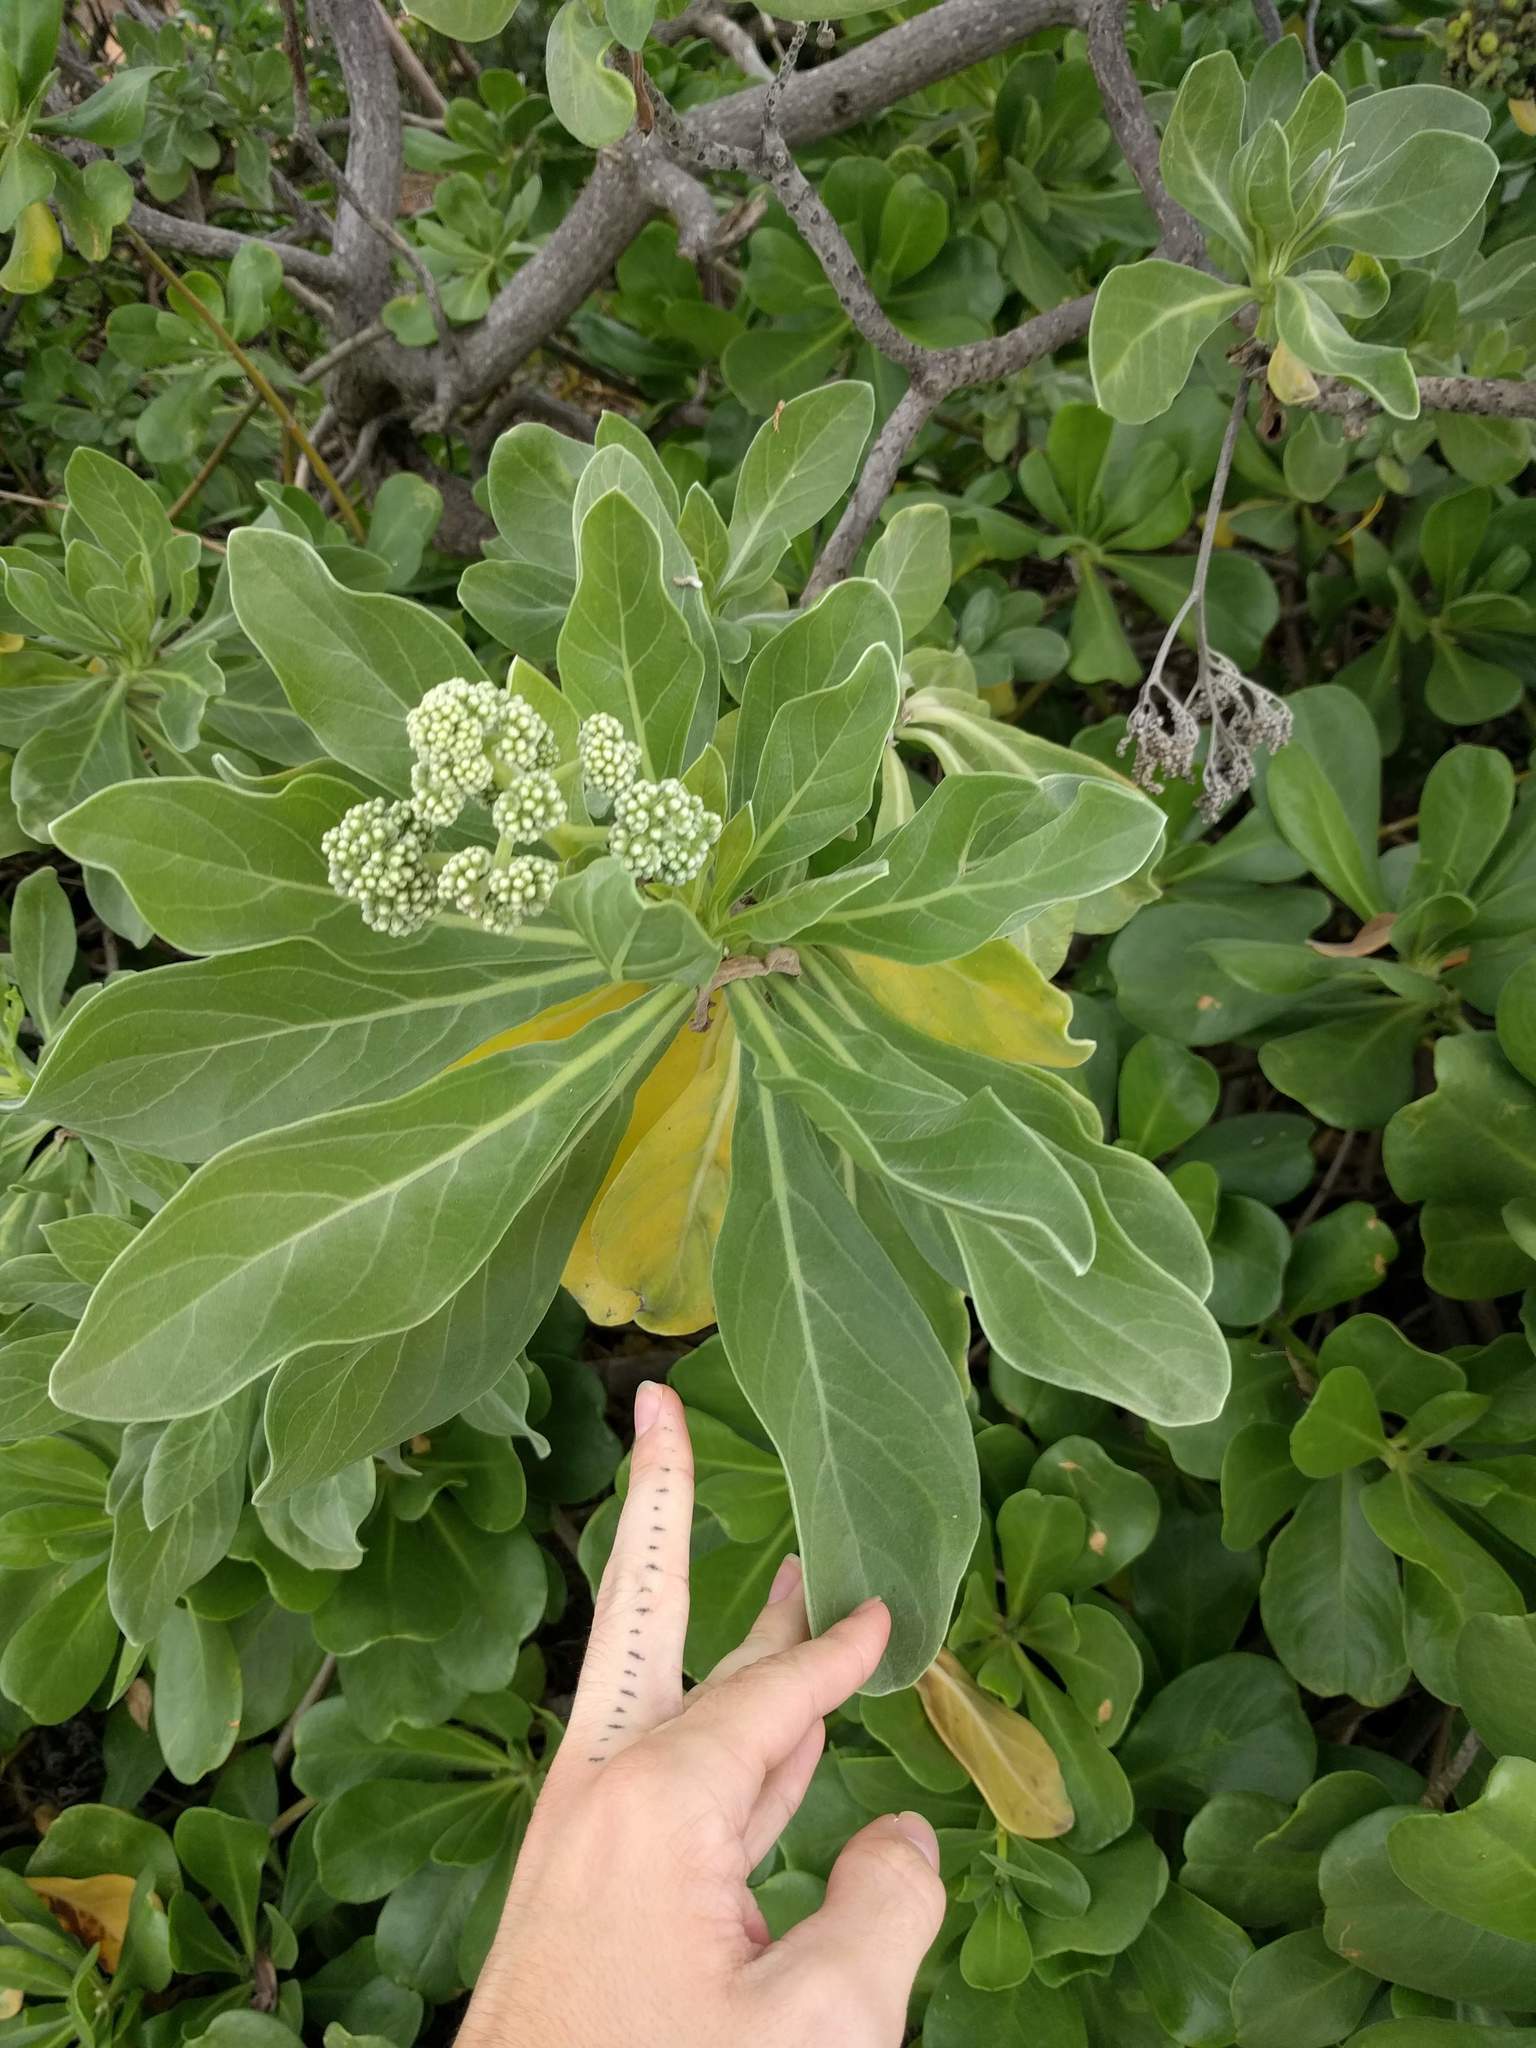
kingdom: Plantae
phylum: Tracheophyta
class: Magnoliopsida
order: Boraginales
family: Heliotropiaceae
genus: Heliotropium
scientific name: Heliotropium velutinum
